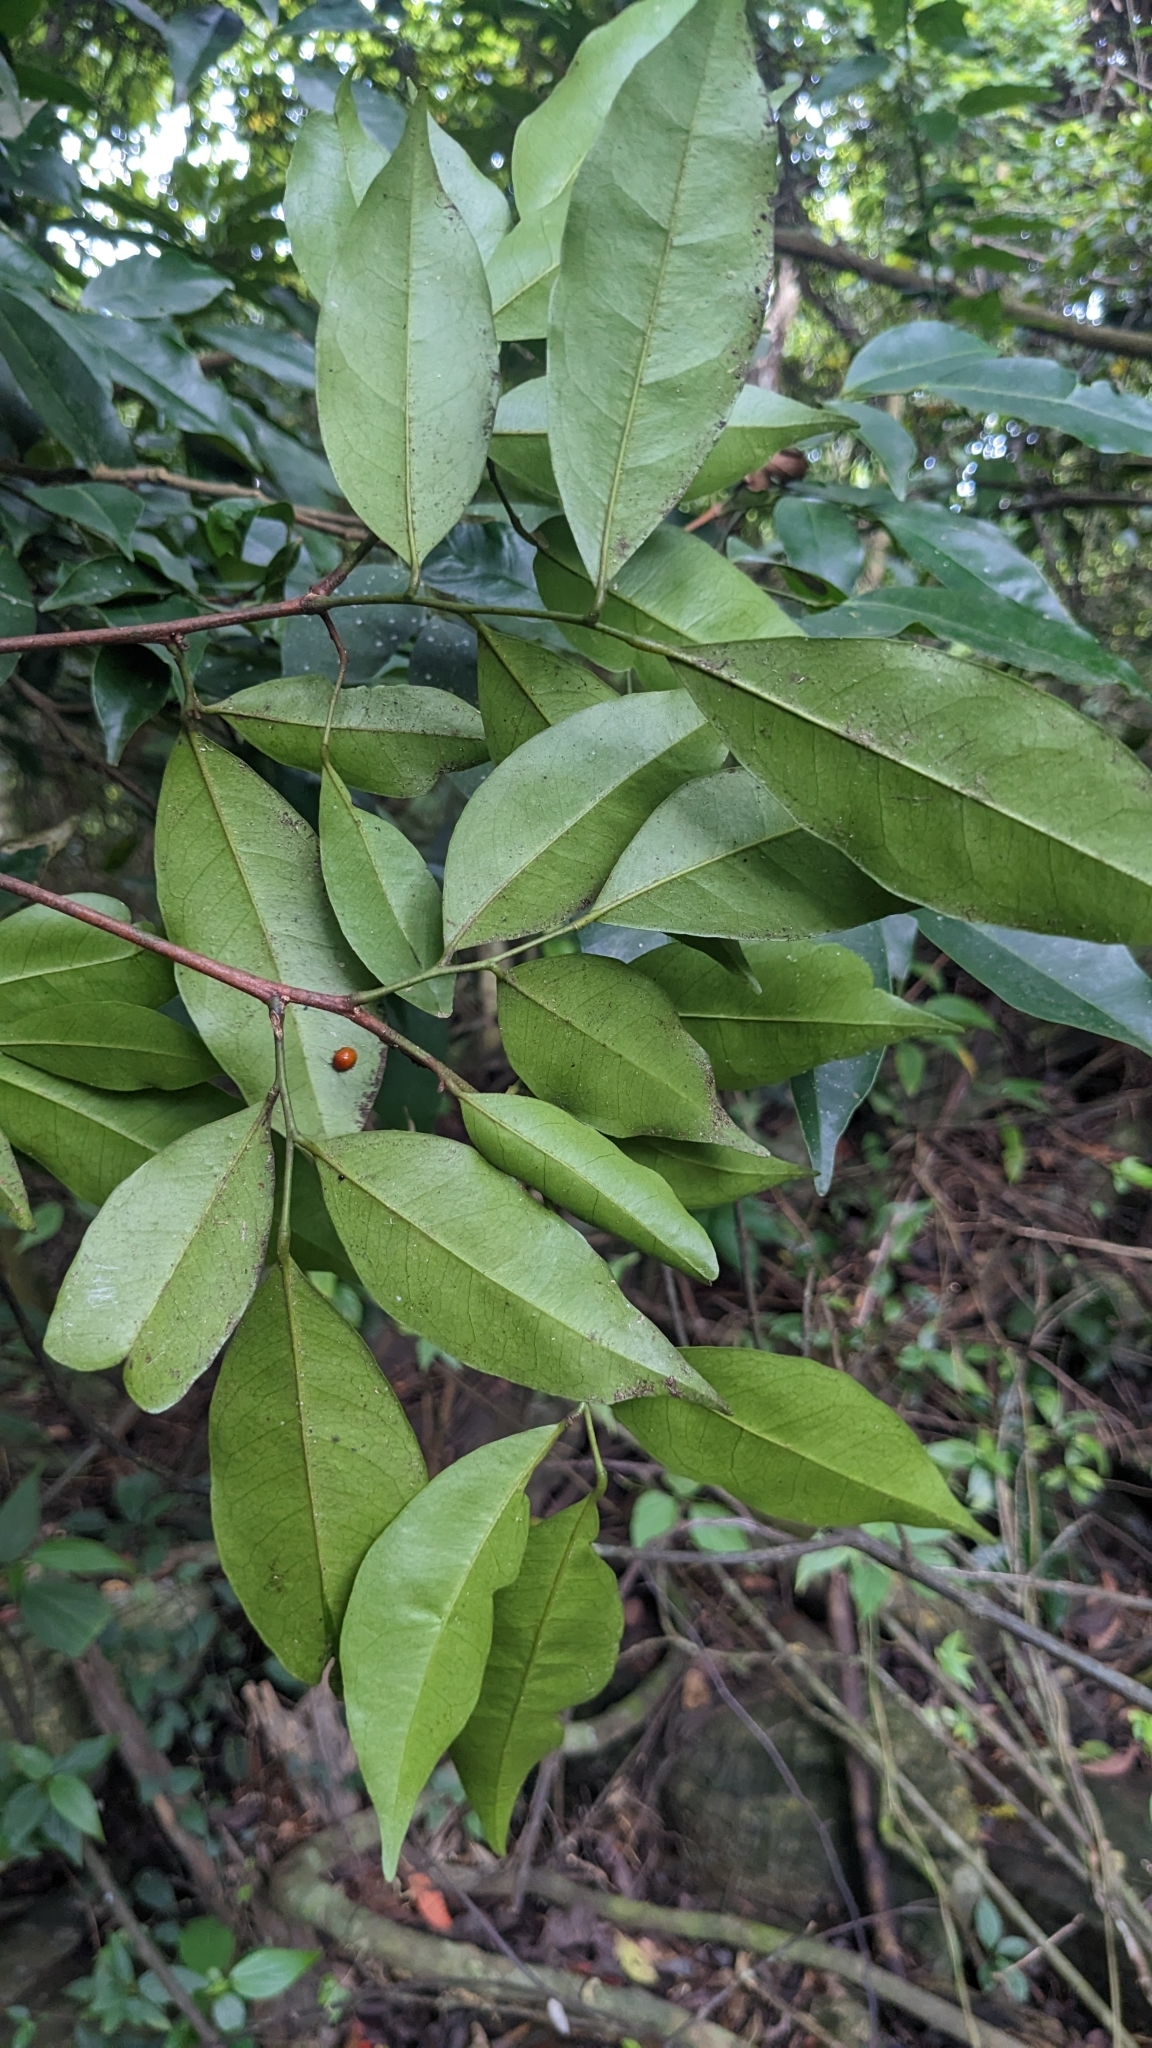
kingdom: Plantae
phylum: Tracheophyta
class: Magnoliopsida
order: Sapindales
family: Rutaceae
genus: Glycosmis
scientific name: Glycosmis parviflora
